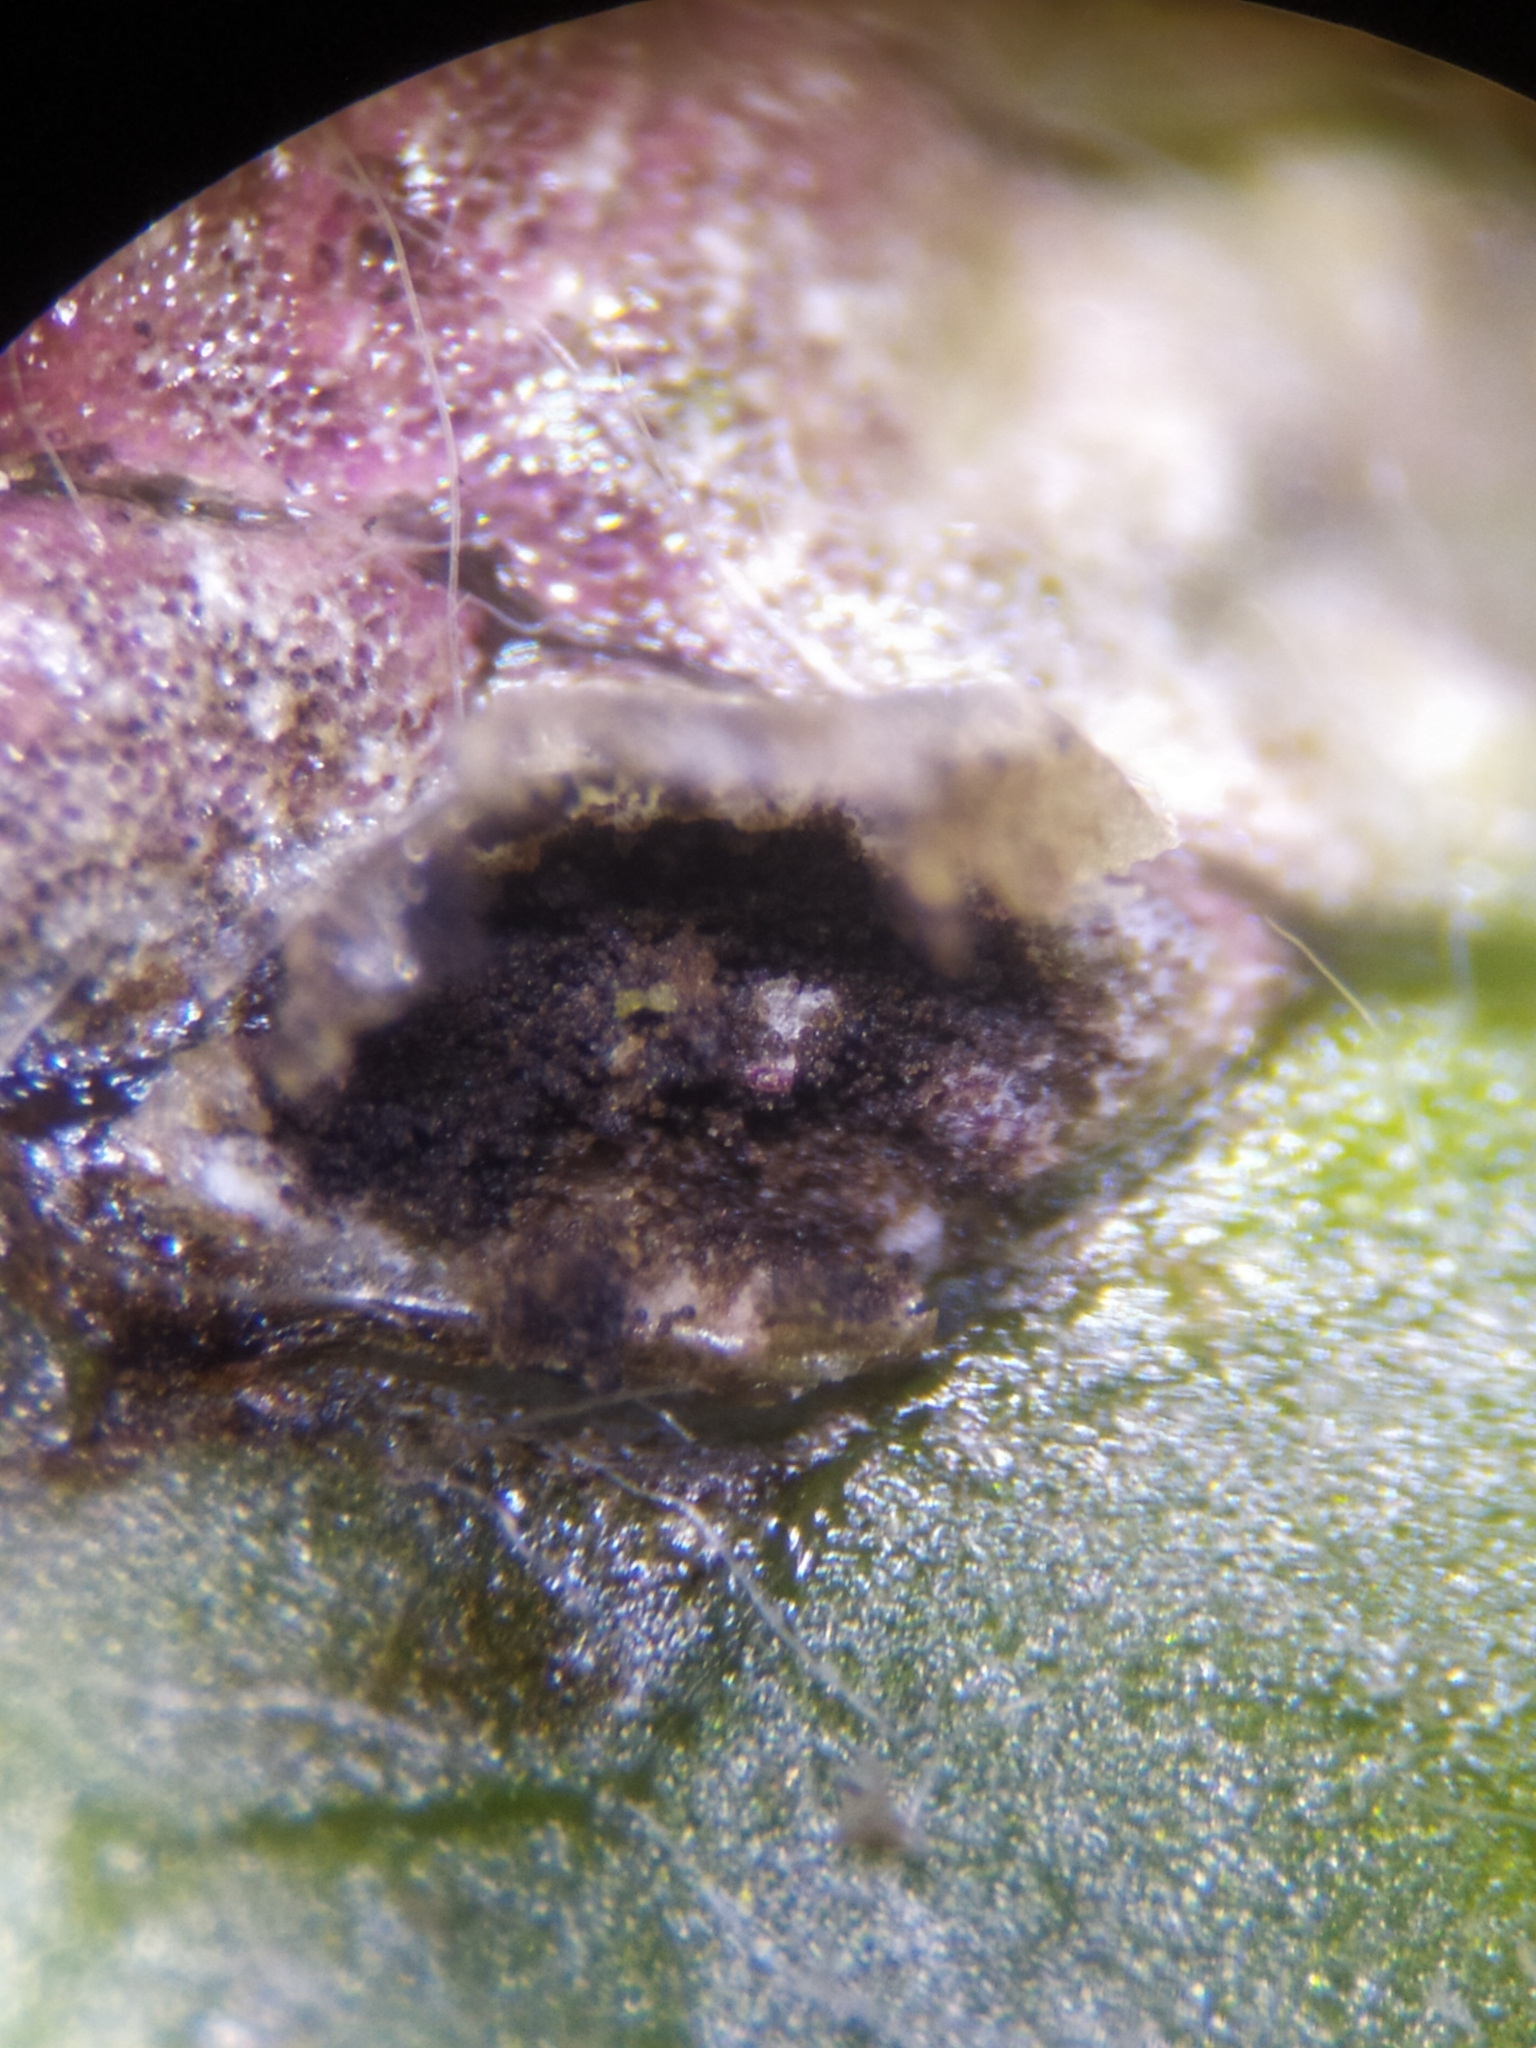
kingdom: Fungi
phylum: Basidiomycota
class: Ustilaginomycetes
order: Urocystidales
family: Urocystidaceae
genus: Urocystis
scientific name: Urocystis syncocca
